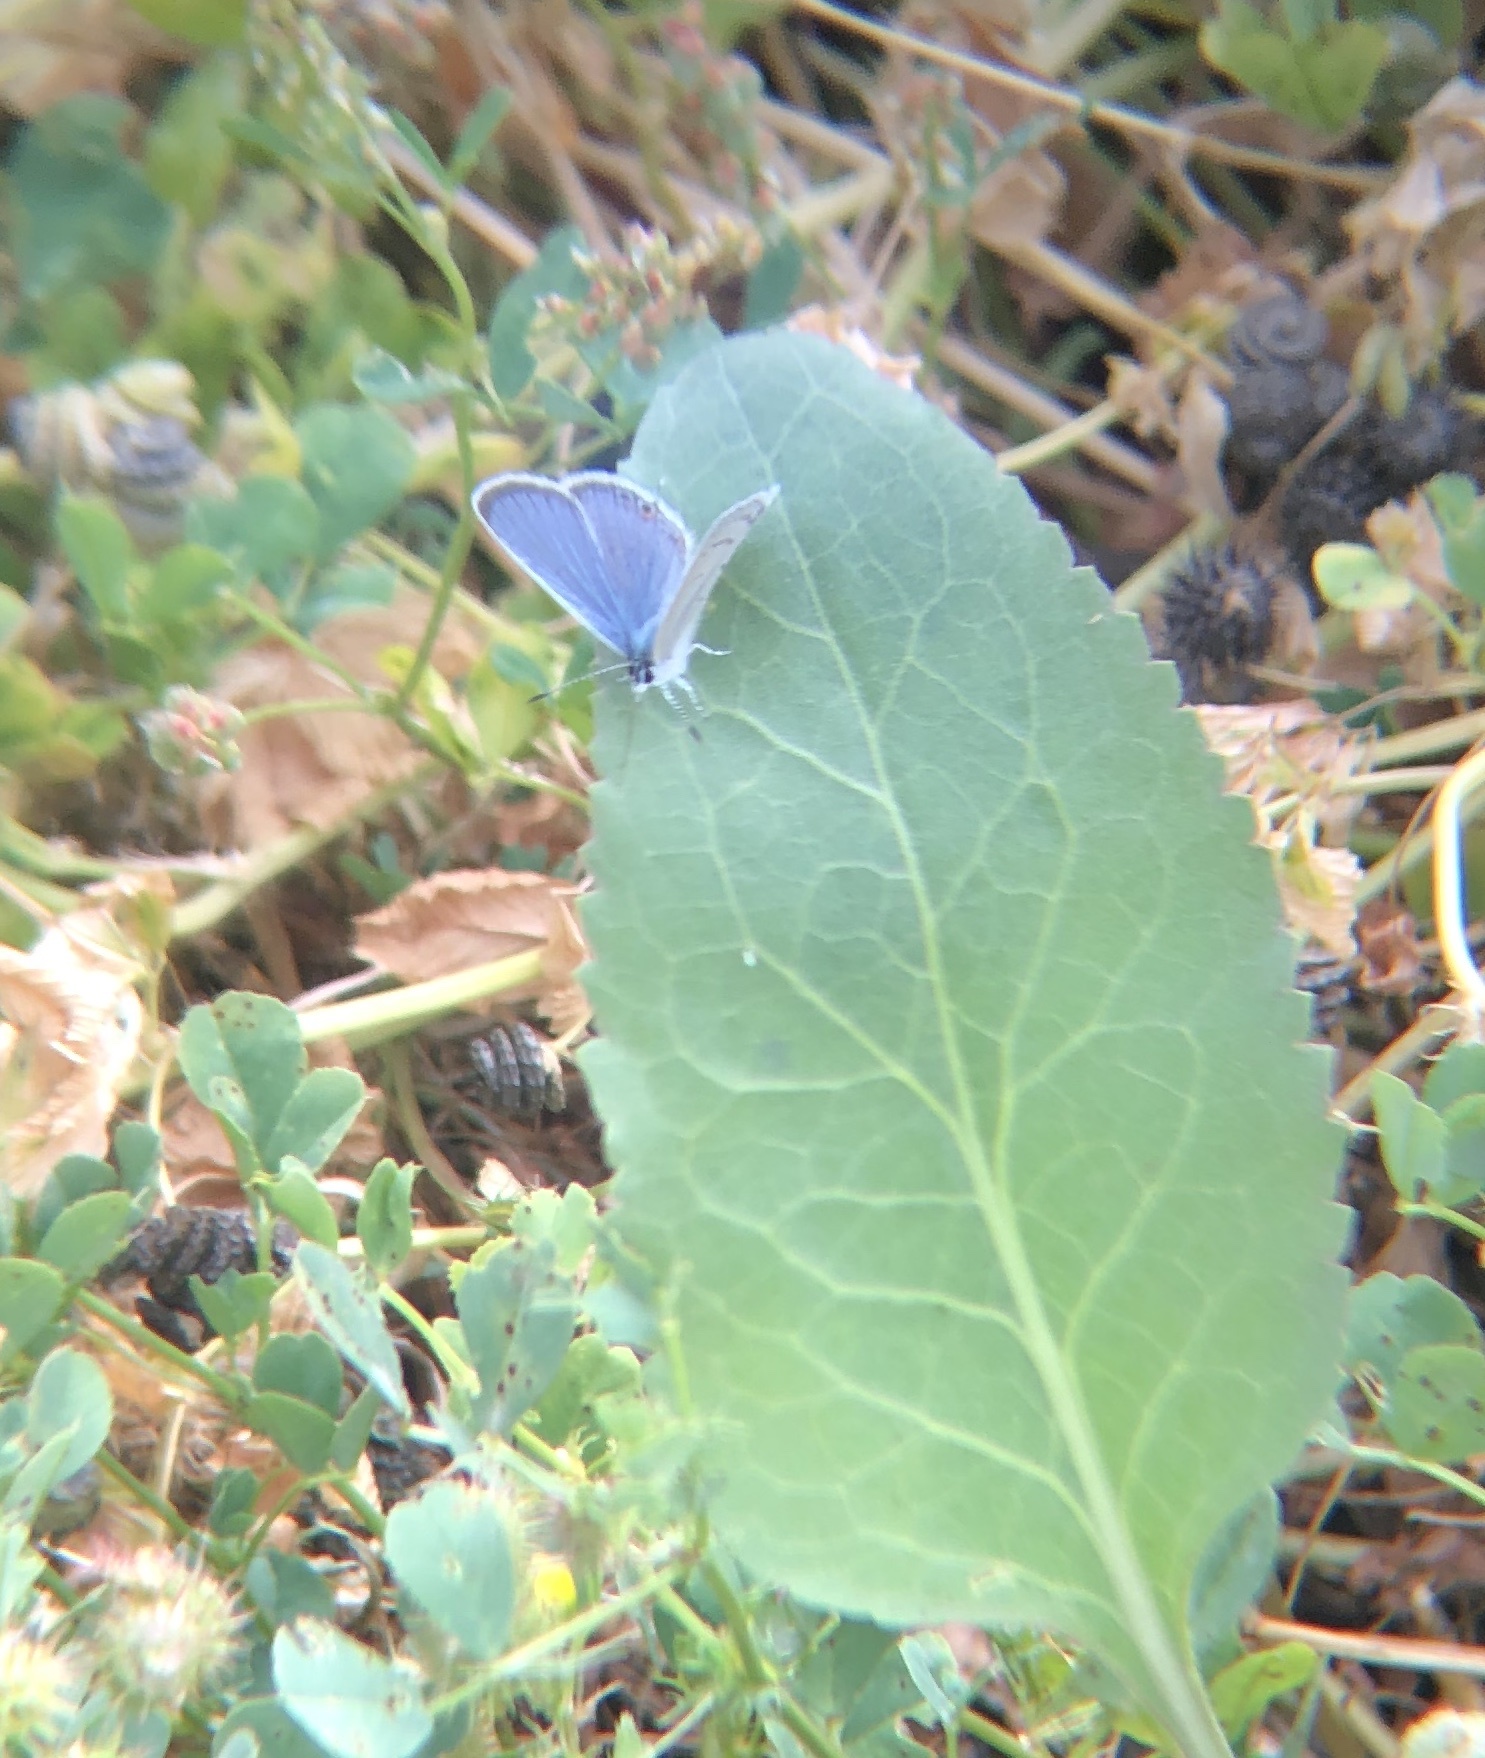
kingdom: Animalia
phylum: Arthropoda
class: Insecta
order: Lepidoptera
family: Lycaenidae
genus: Elkalyce
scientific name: Elkalyce comyntas
